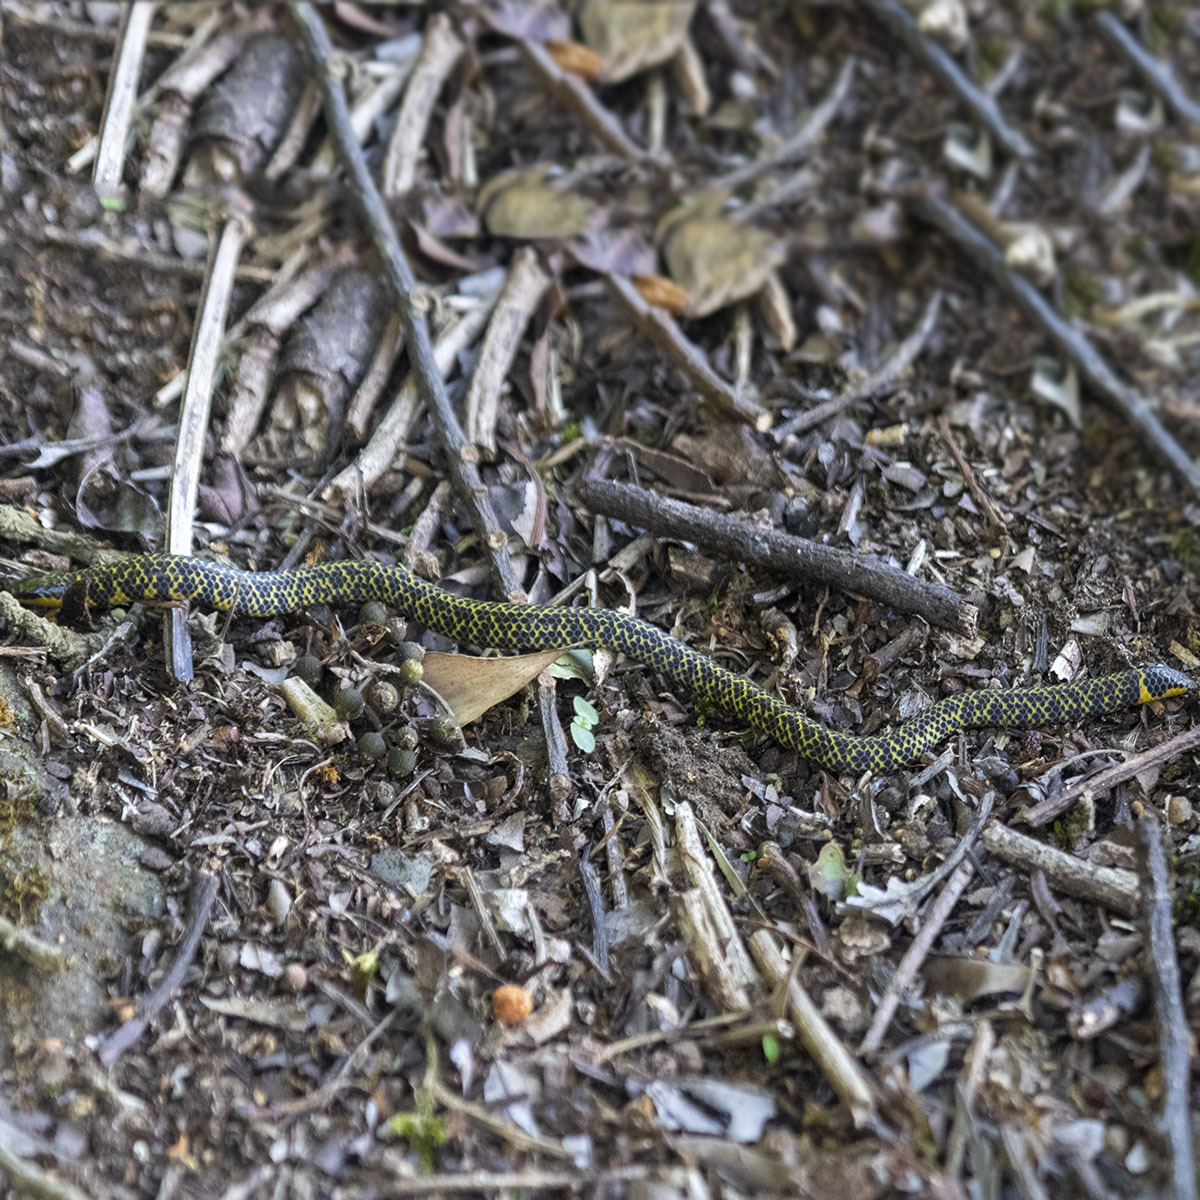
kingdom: Animalia
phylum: Chordata
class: Squamata
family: Uropeltidae
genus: Uropeltis
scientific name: Uropeltis madurensis
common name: Madura earth snake
